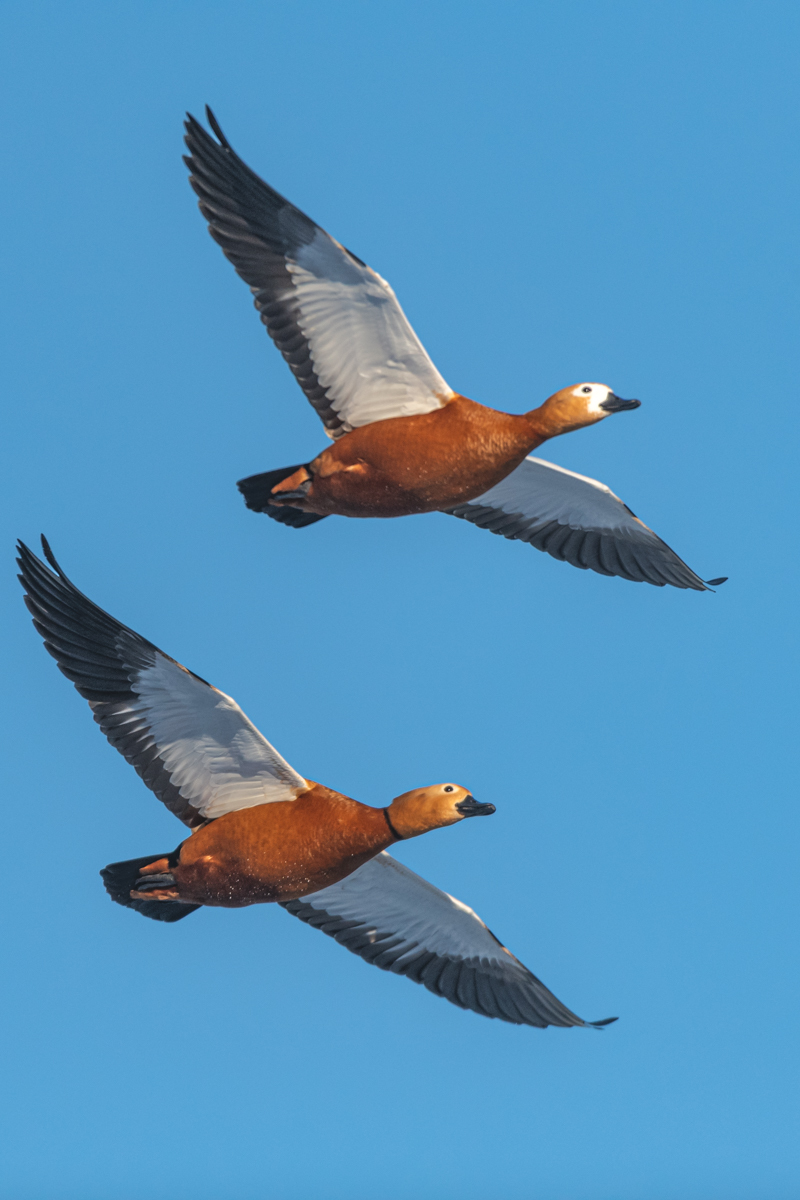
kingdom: Animalia
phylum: Chordata
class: Aves
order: Anseriformes
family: Anatidae
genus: Tadorna
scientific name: Tadorna ferruginea
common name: Ruddy shelduck
